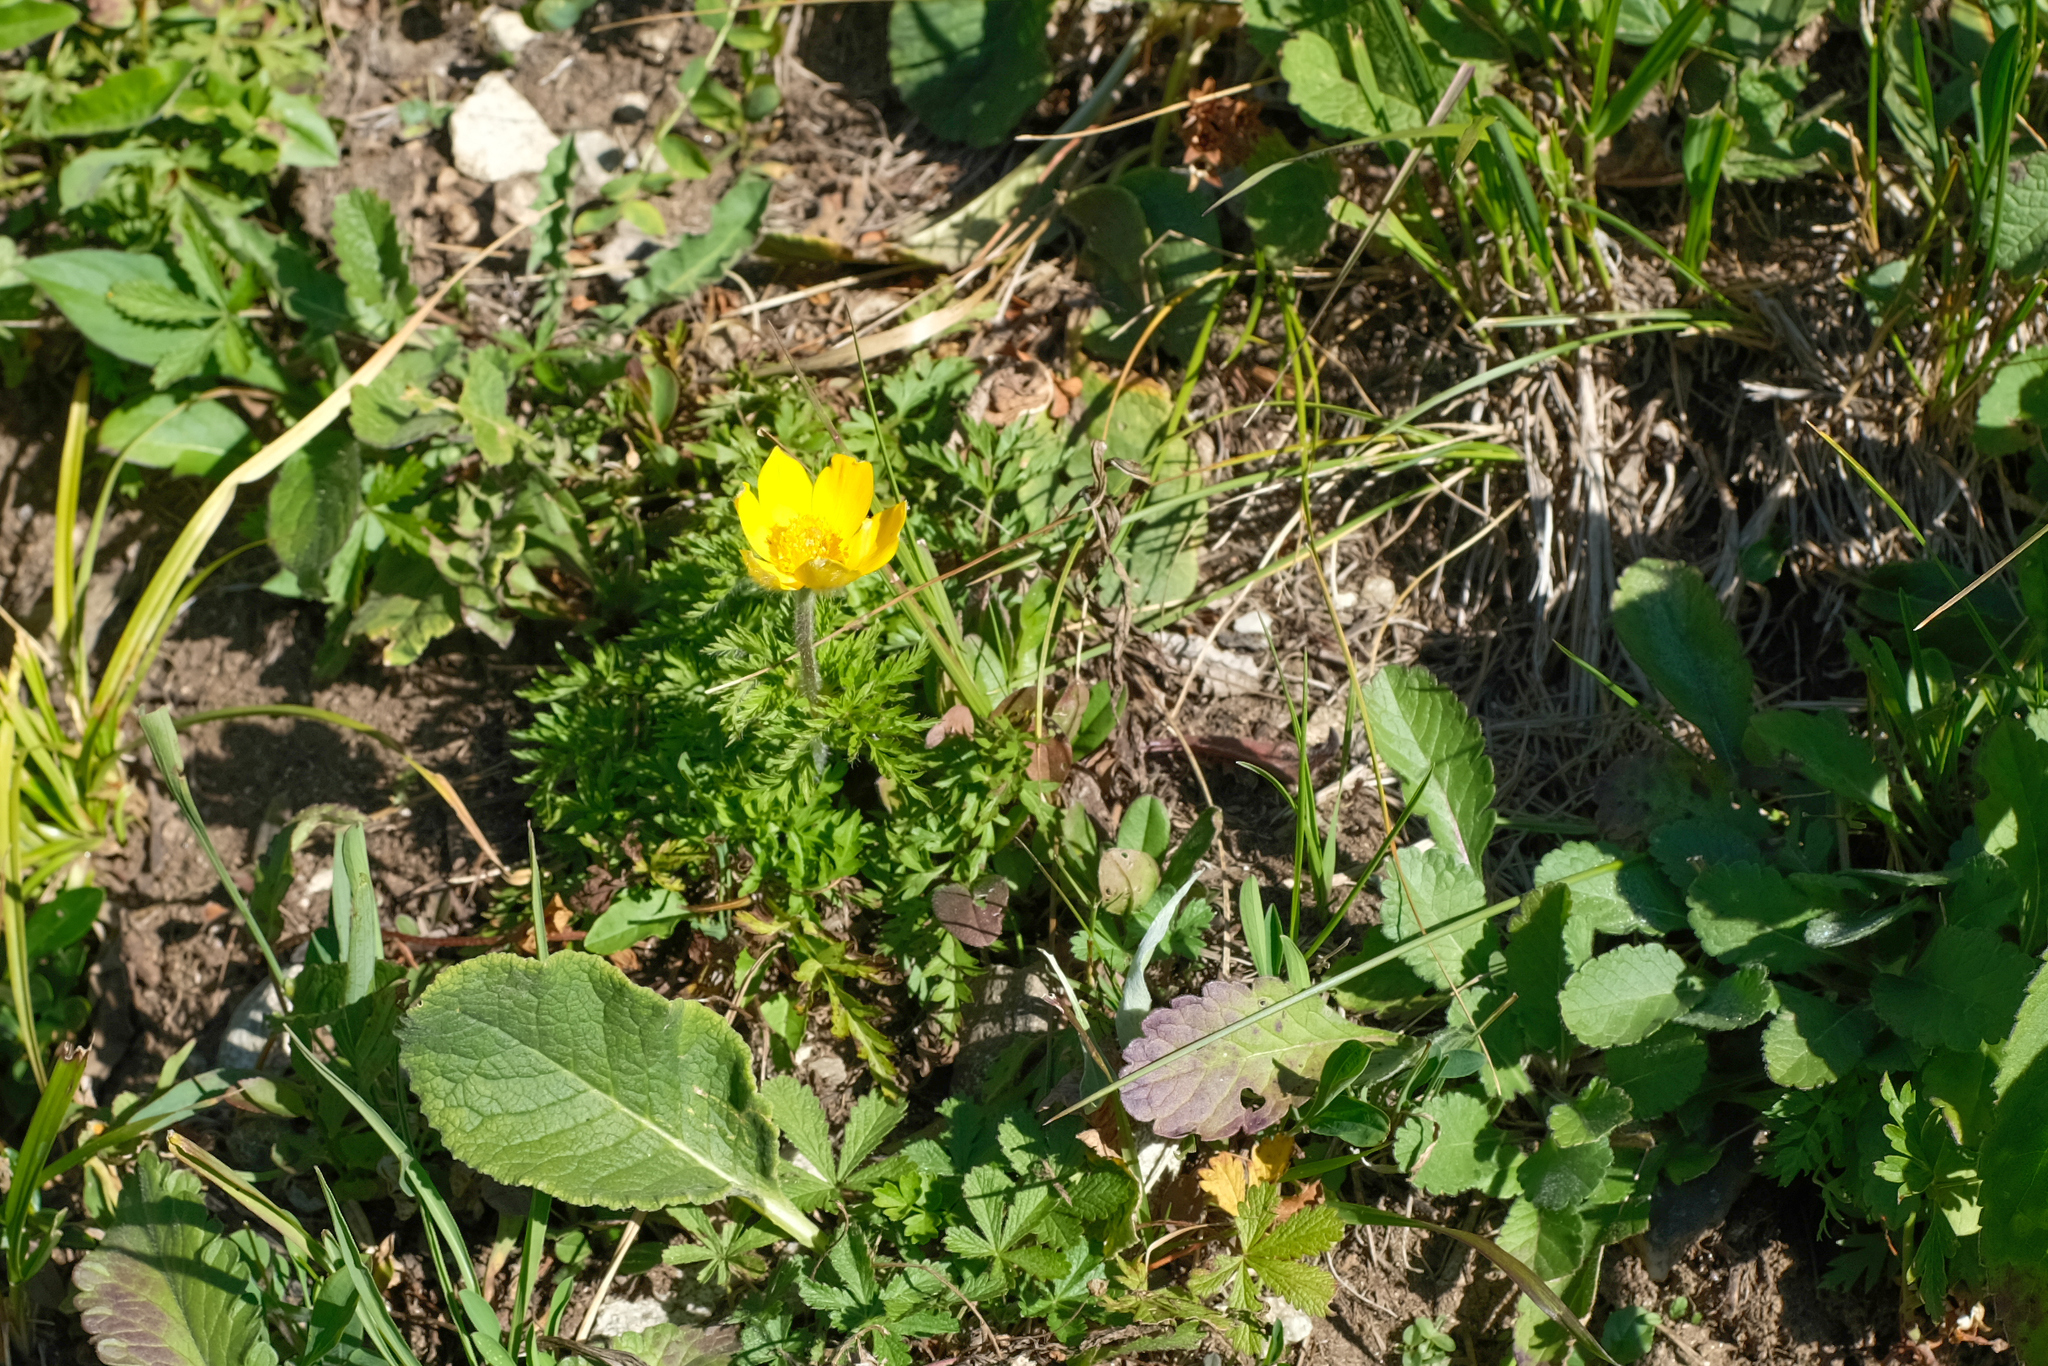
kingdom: Plantae
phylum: Tracheophyta
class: Magnoliopsida
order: Ranunculales
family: Ranunculaceae
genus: Pulsatilla
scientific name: Pulsatilla aurea
